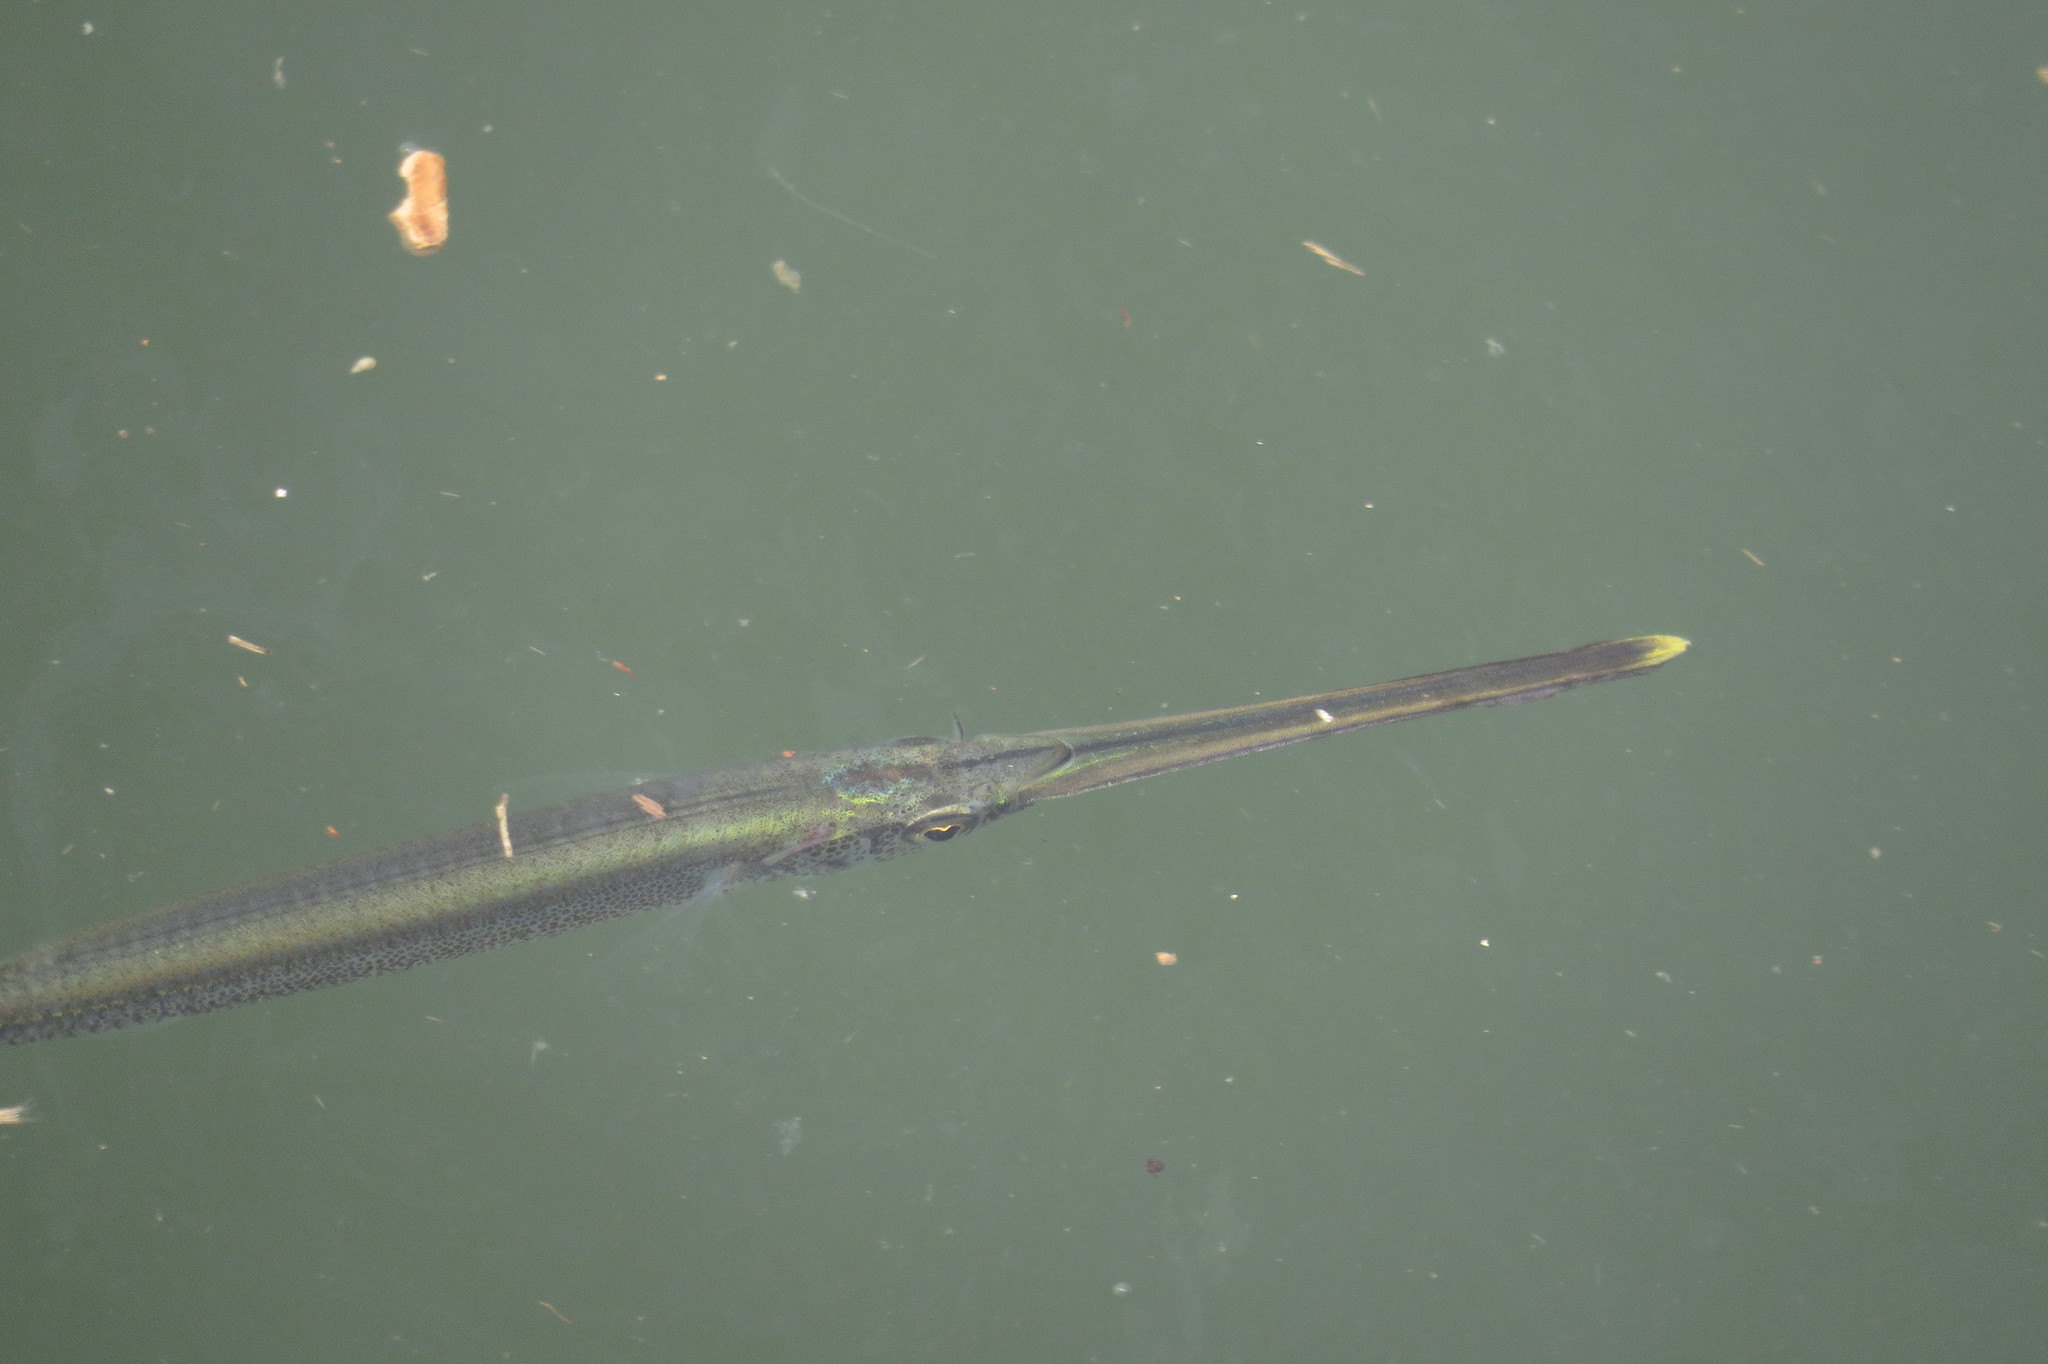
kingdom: Animalia
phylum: Chordata
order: Beloniformes
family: Hemiramphidae
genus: Rhynchorhamphus
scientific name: Rhynchorhamphus georgii
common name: Long billed half beak
